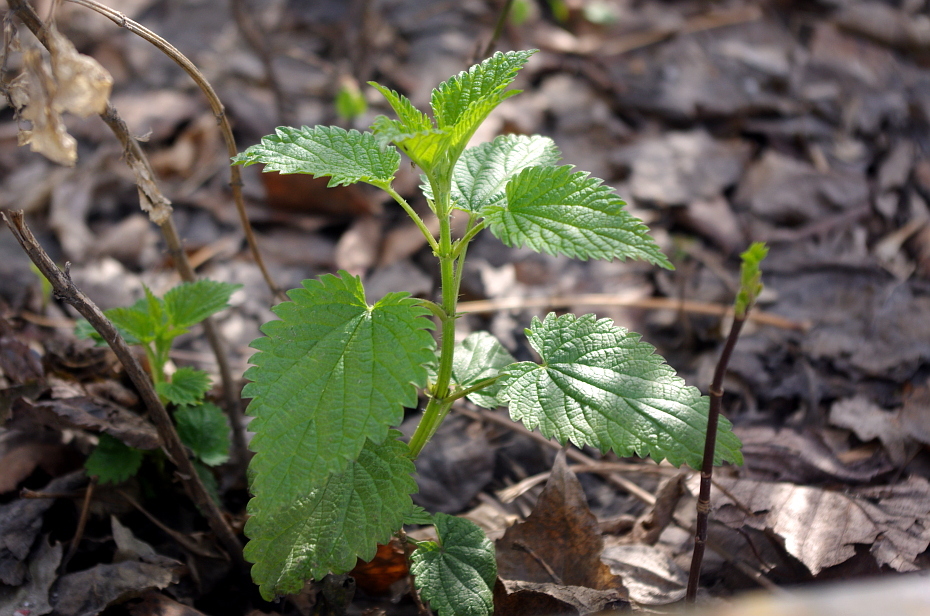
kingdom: Plantae
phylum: Tracheophyta
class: Magnoliopsida
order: Rosales
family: Urticaceae
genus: Urtica
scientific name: Urtica dioica
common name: Common nettle
